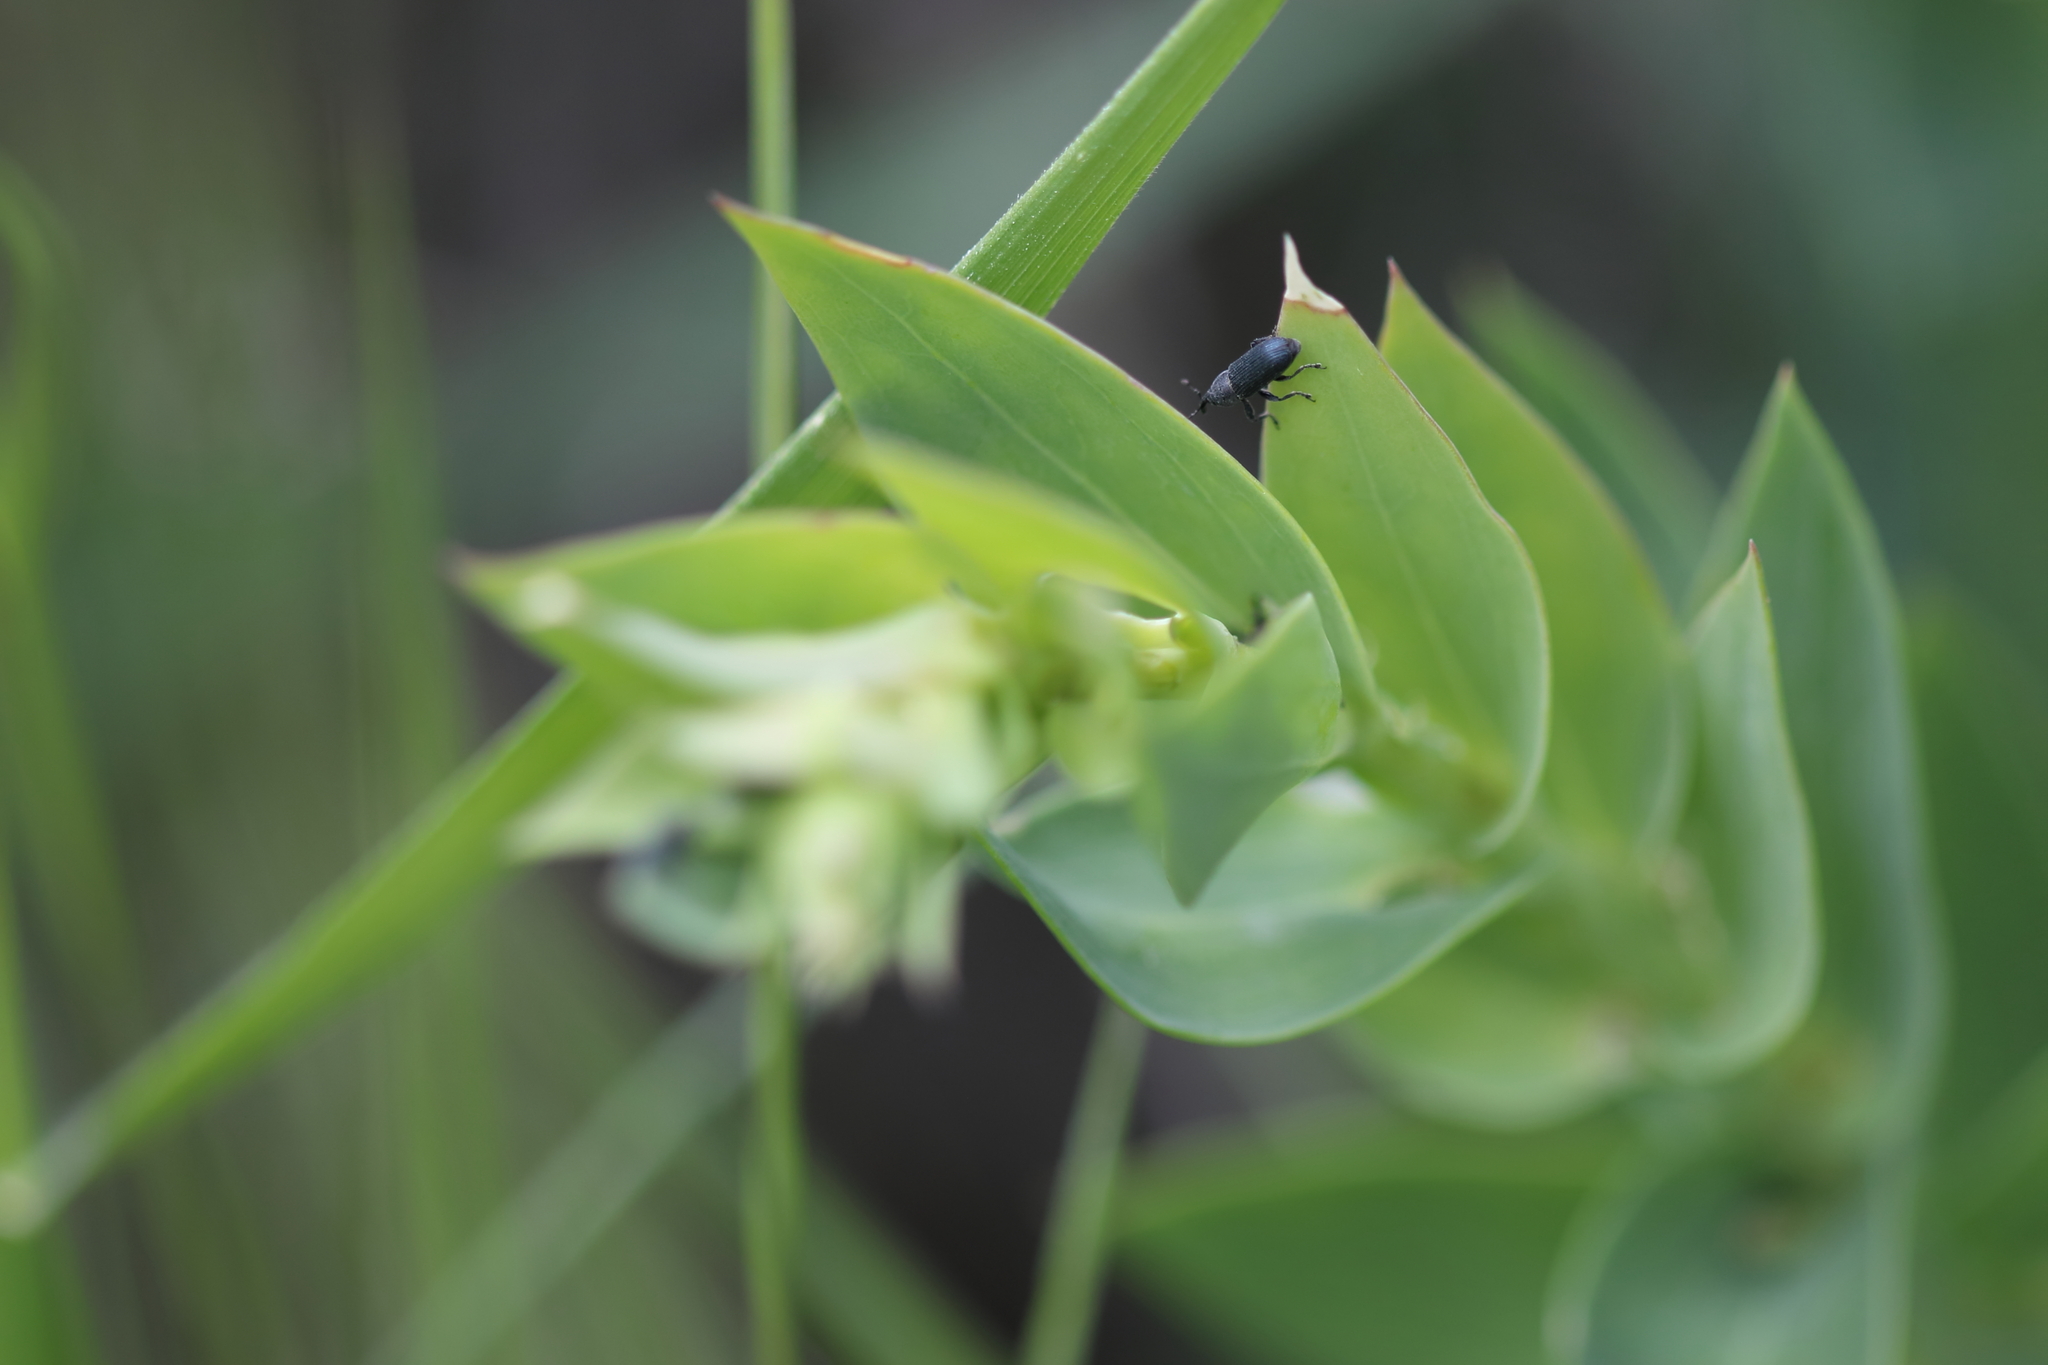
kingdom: Animalia
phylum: Arthropoda
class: Insecta
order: Coleoptera
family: Curculionidae
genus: Mecinus
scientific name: Mecinus janthiniformis
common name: Dalmatian toadflax stem weevil
